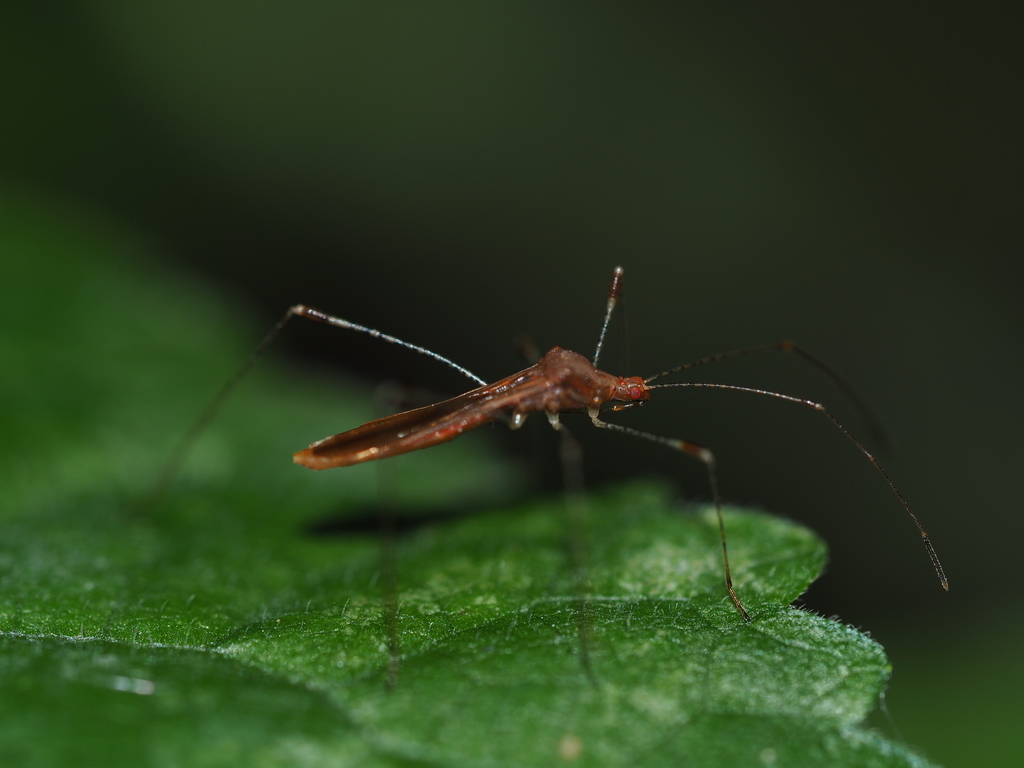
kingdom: Animalia
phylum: Arthropoda
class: Insecta
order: Hemiptera
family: Berytidae
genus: Metatropis
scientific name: Metatropis rufescens
